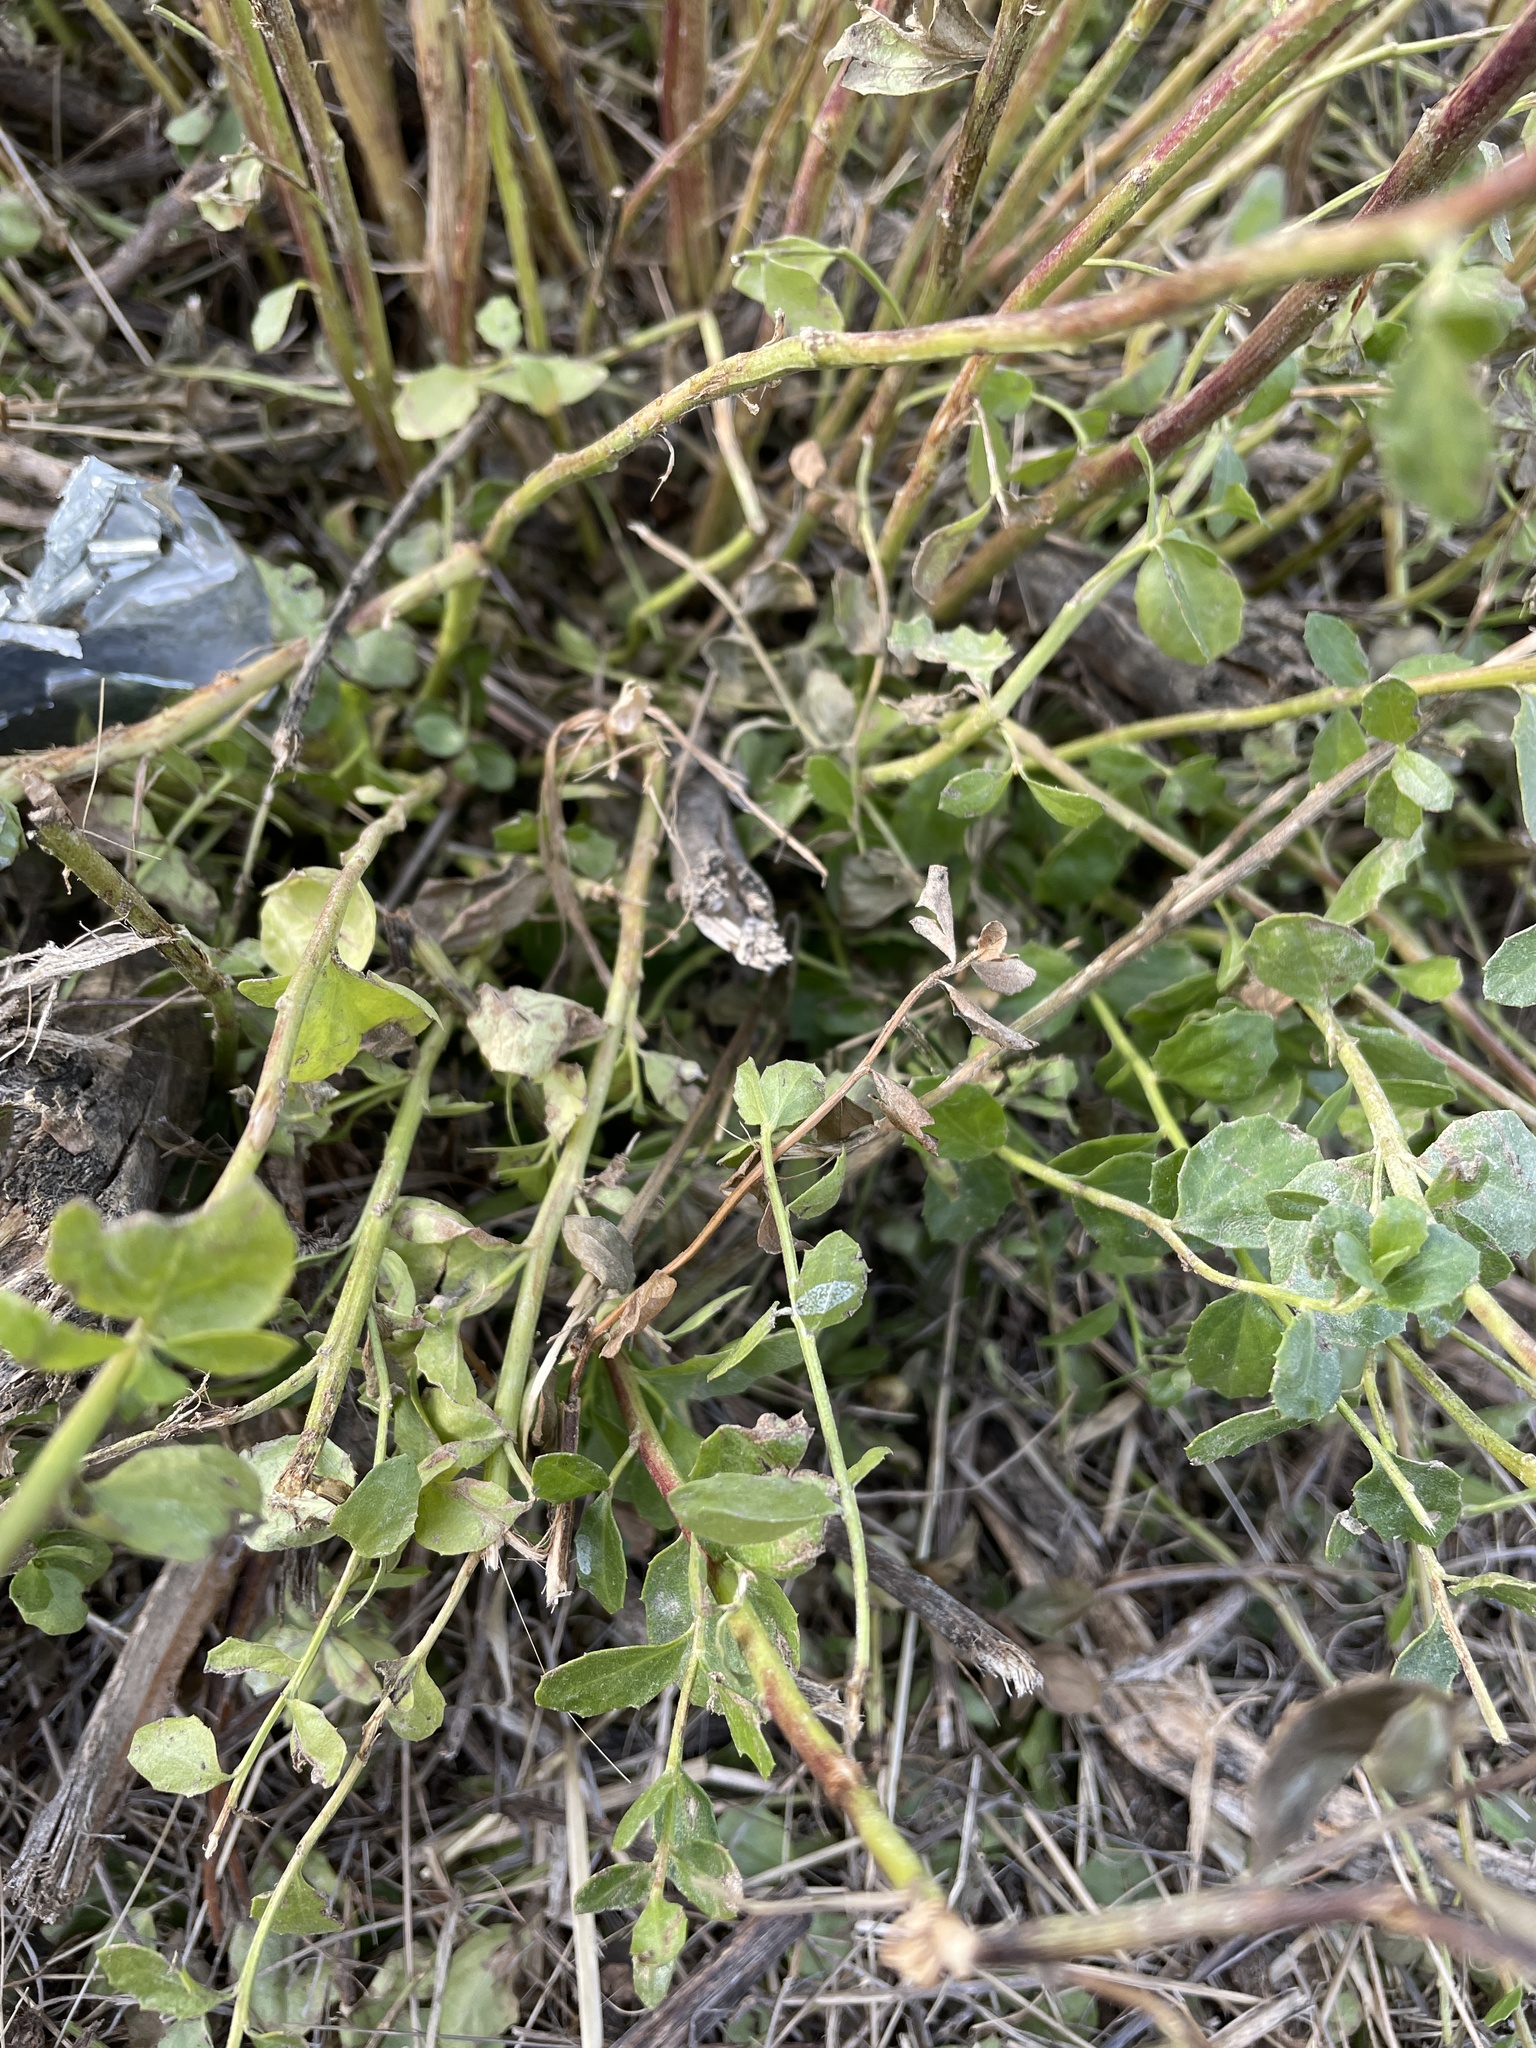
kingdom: Plantae
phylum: Tracheophyta
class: Magnoliopsida
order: Asterales
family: Asteraceae
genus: Baccharis
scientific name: Baccharis pilularis
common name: Coyotebrush
